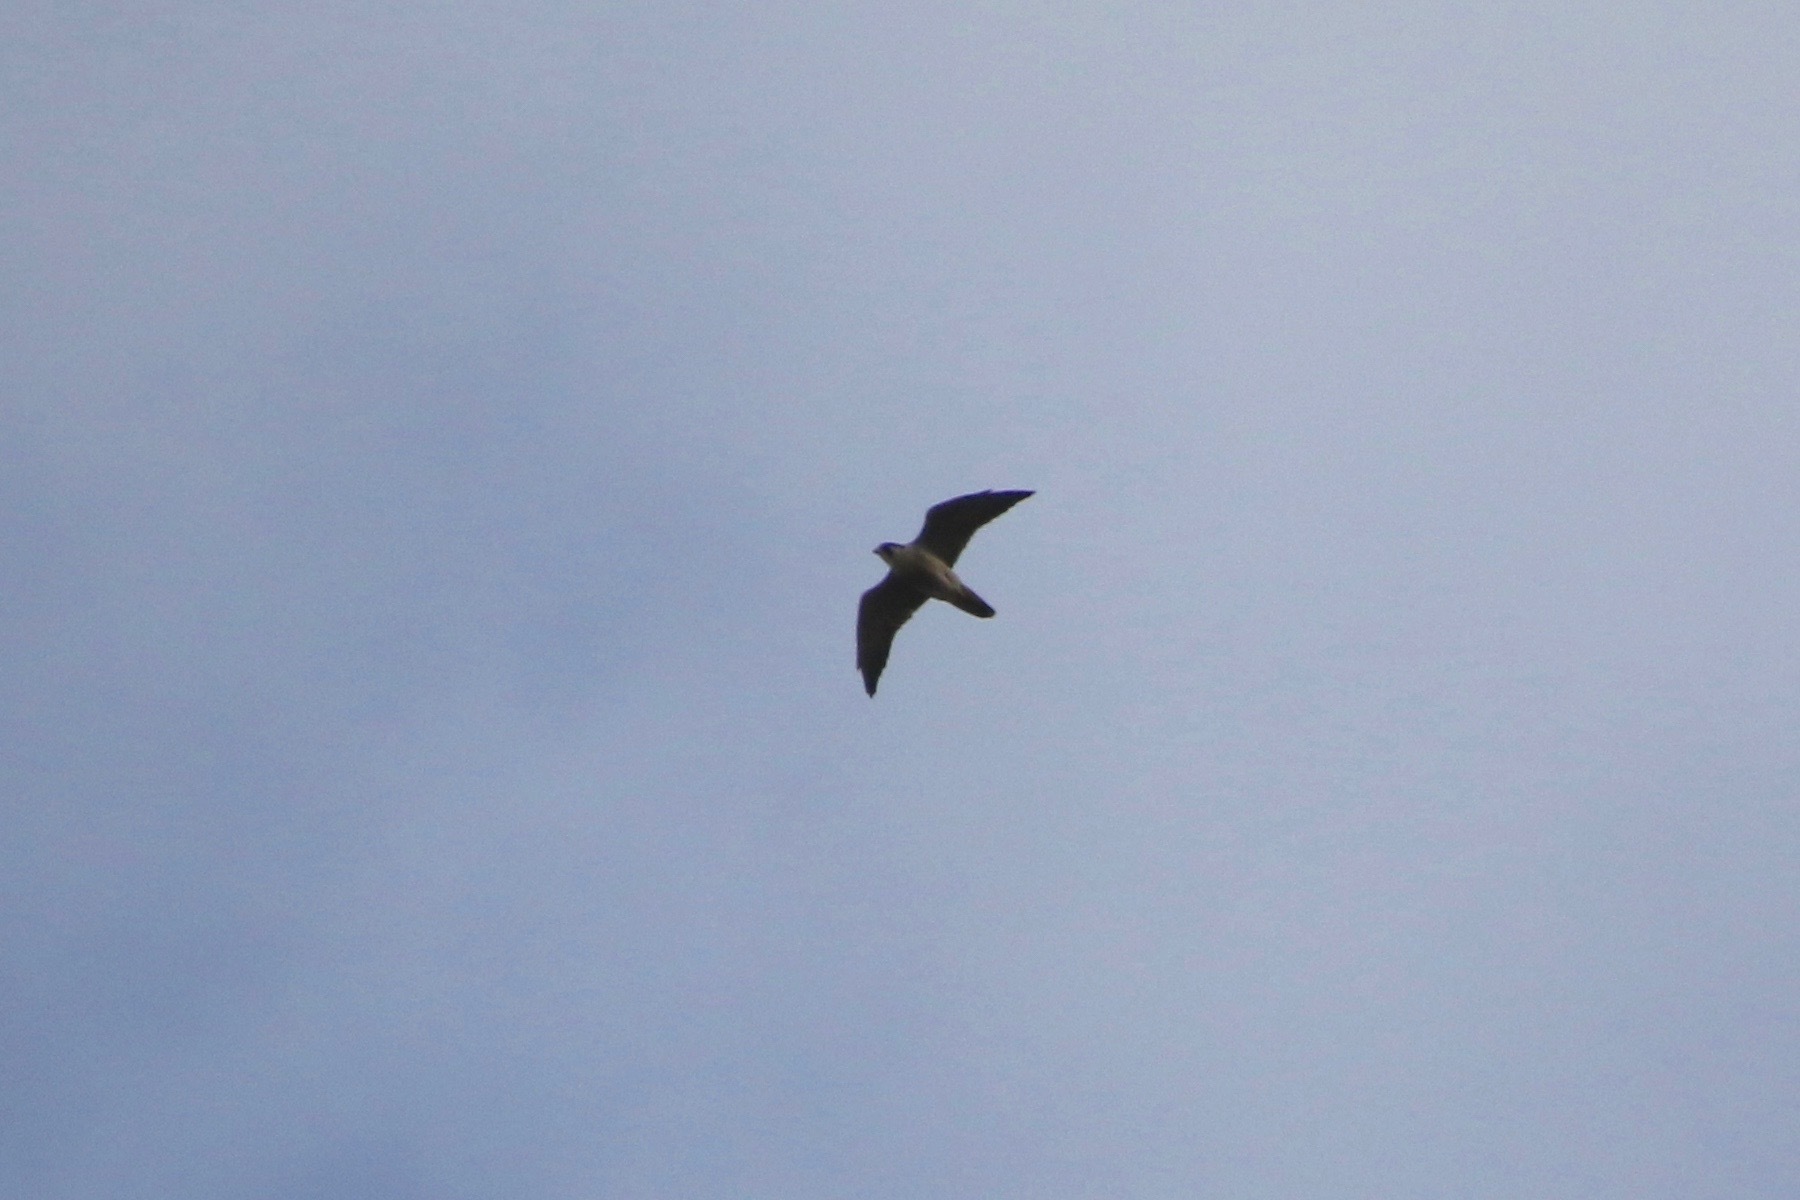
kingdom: Animalia
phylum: Chordata
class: Aves
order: Falconiformes
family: Falconidae
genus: Falco
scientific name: Falco peregrinus
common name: Peregrine falcon
